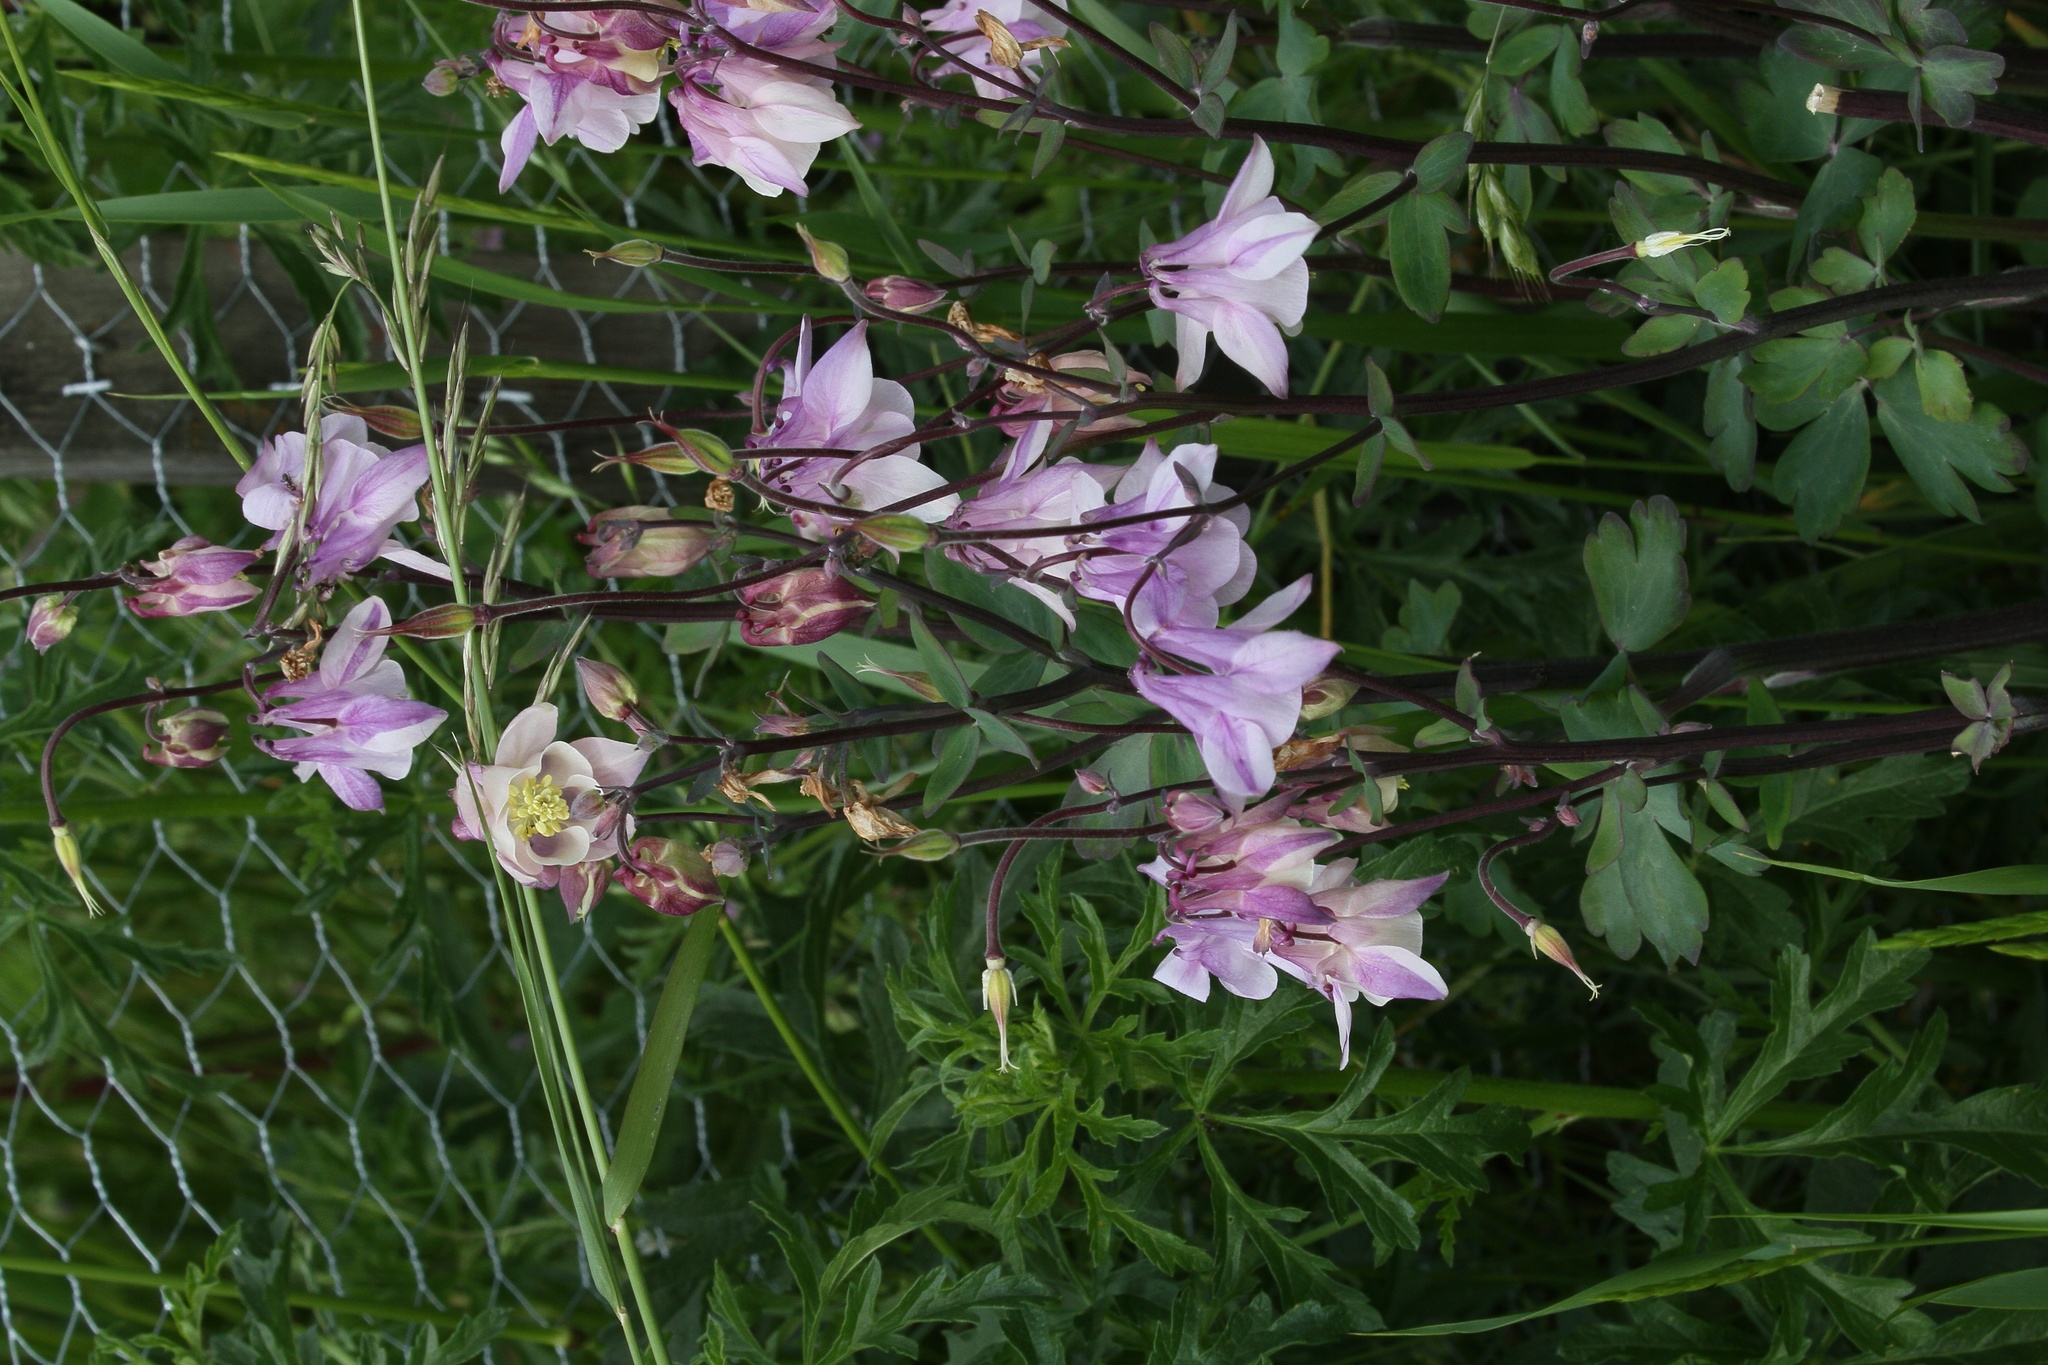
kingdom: Plantae
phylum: Tracheophyta
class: Magnoliopsida
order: Ranunculales
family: Ranunculaceae
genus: Aquilegia
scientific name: Aquilegia vulgaris
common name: Columbine
